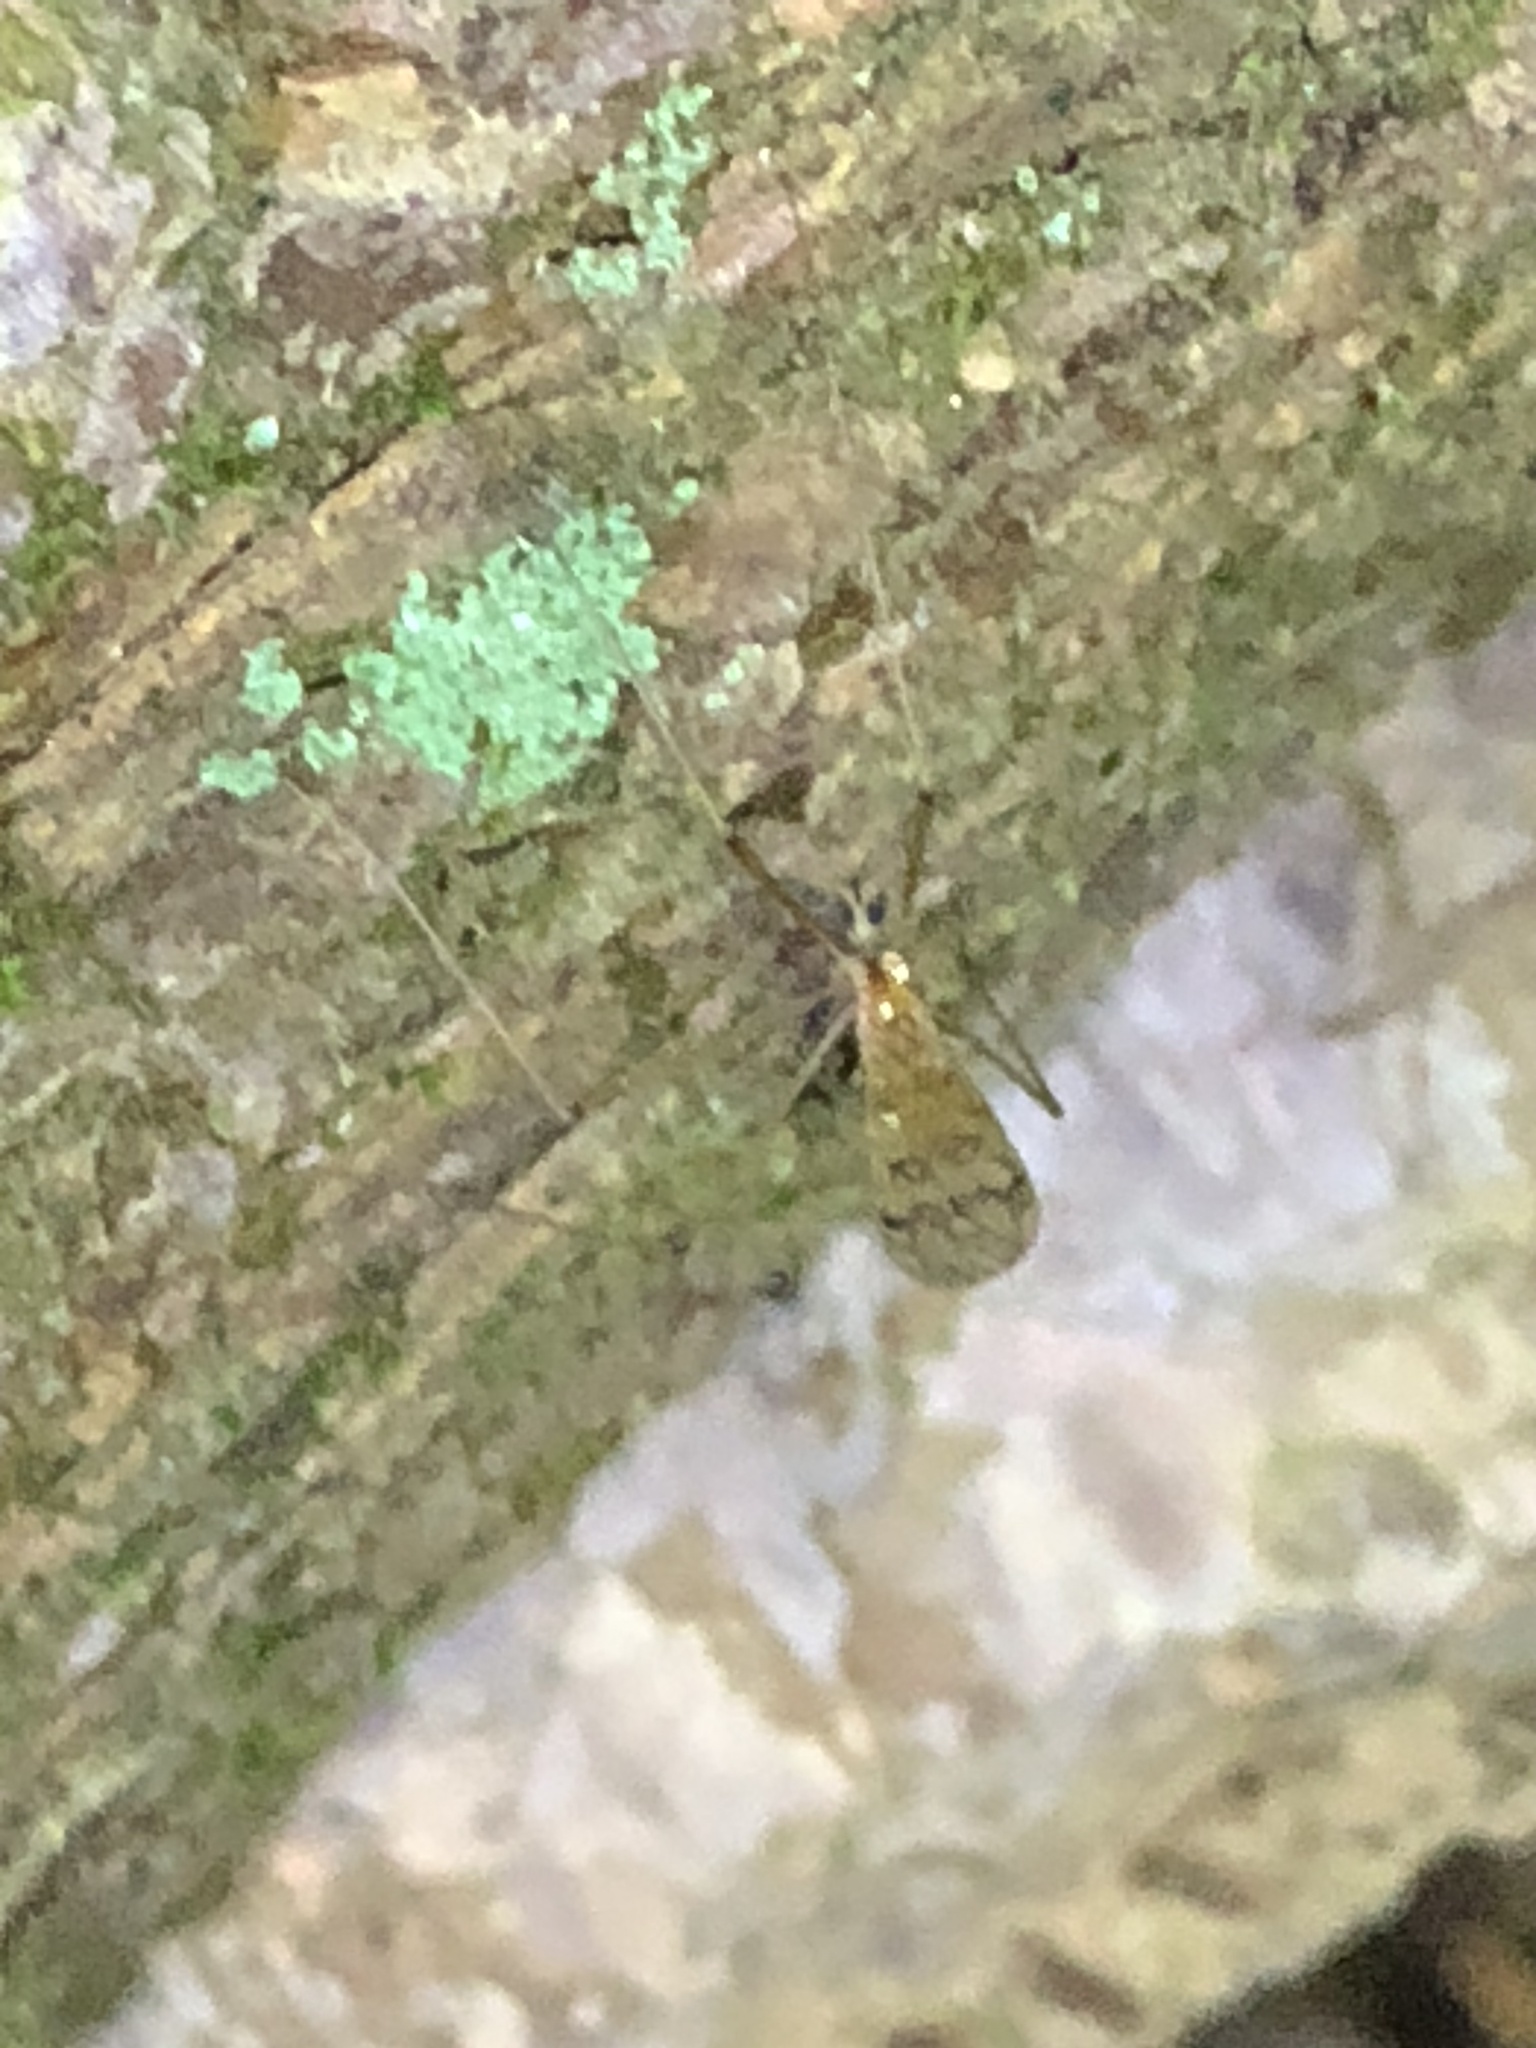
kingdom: Animalia
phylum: Arthropoda
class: Insecta
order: Diptera
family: Limoniidae
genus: Metalimnobia
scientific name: Metalimnobia triocellata
